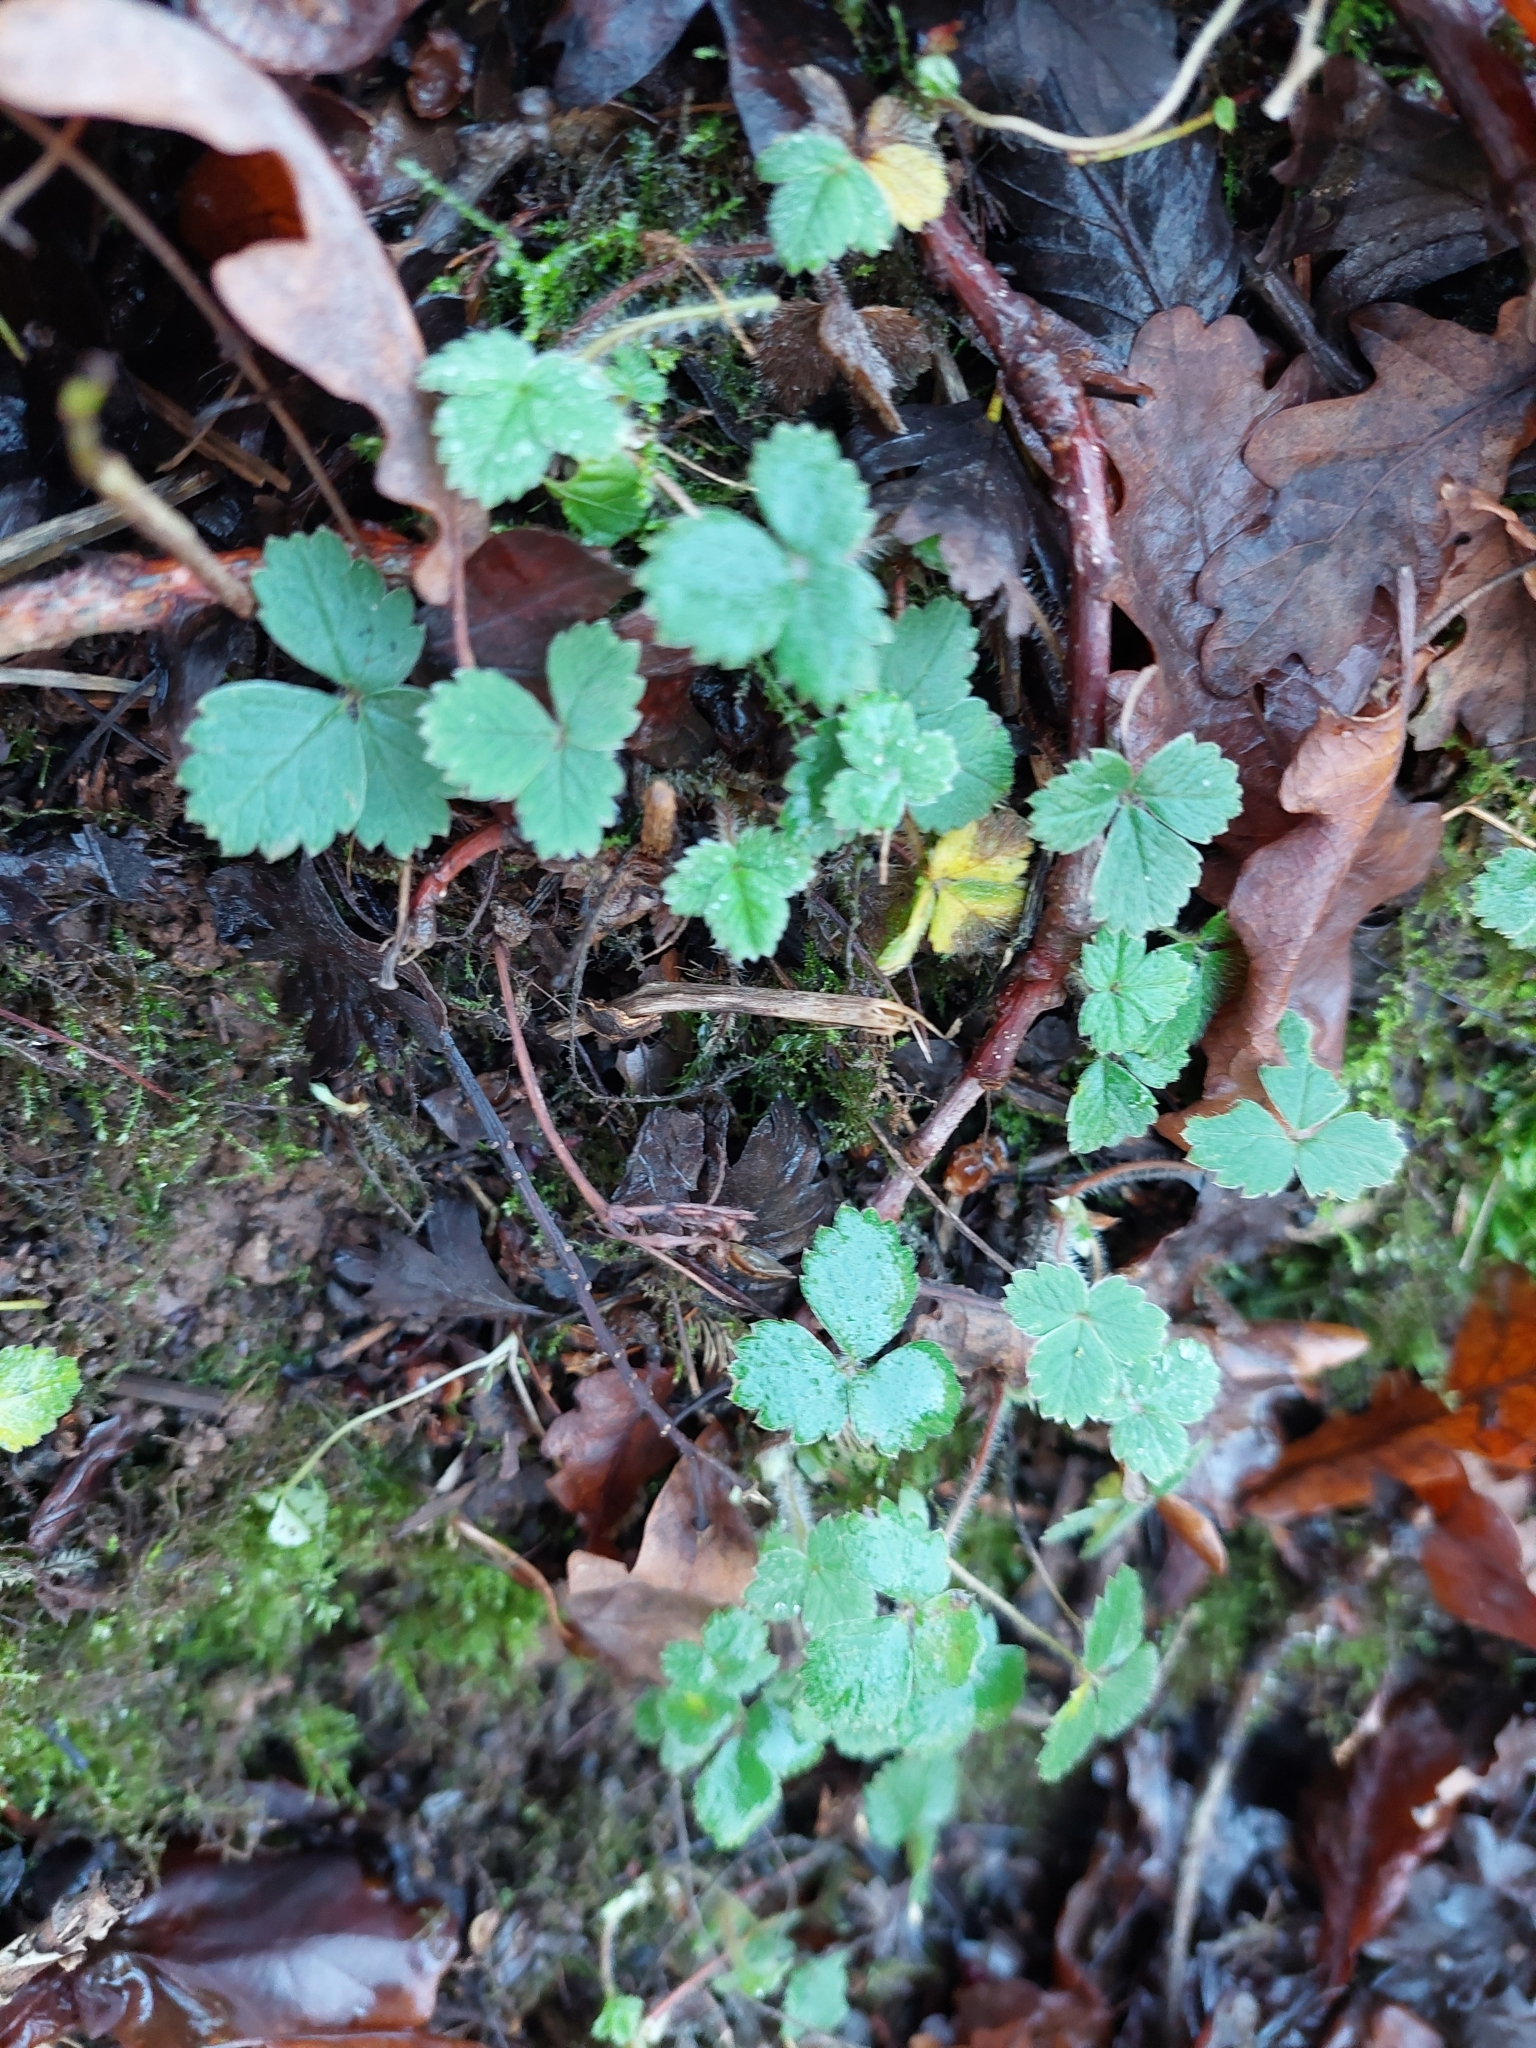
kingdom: Plantae
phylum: Tracheophyta
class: Magnoliopsida
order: Rosales
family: Rosaceae
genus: Potentilla
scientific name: Potentilla sterilis
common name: Barren strawberry
